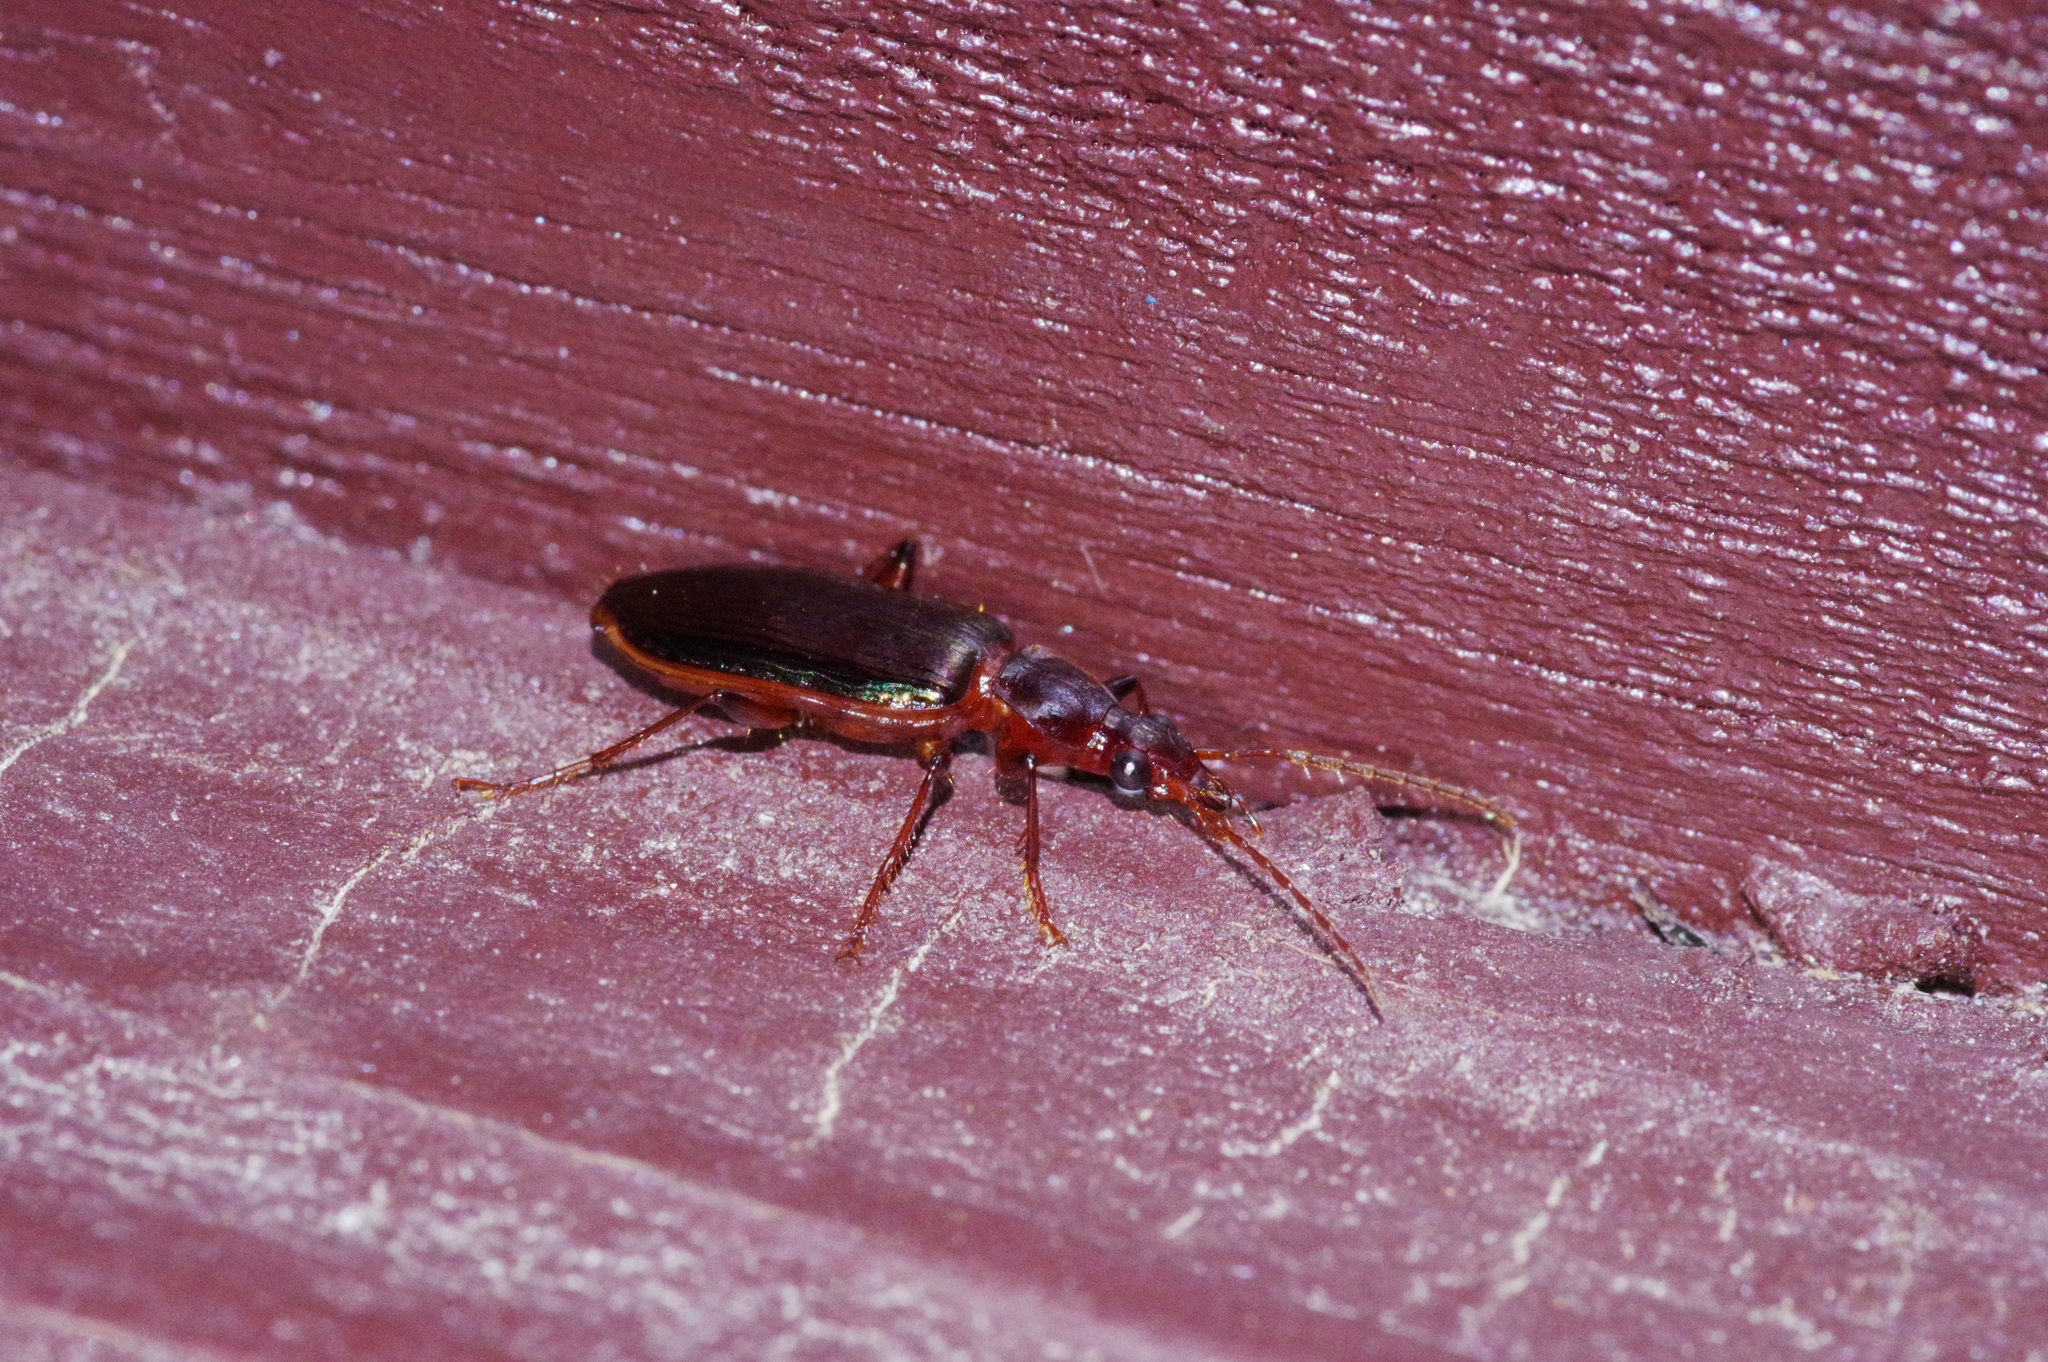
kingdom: Animalia
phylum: Arthropoda
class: Insecta
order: Coleoptera
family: Carabidae
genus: Calleida
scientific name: Calleida splendidula
